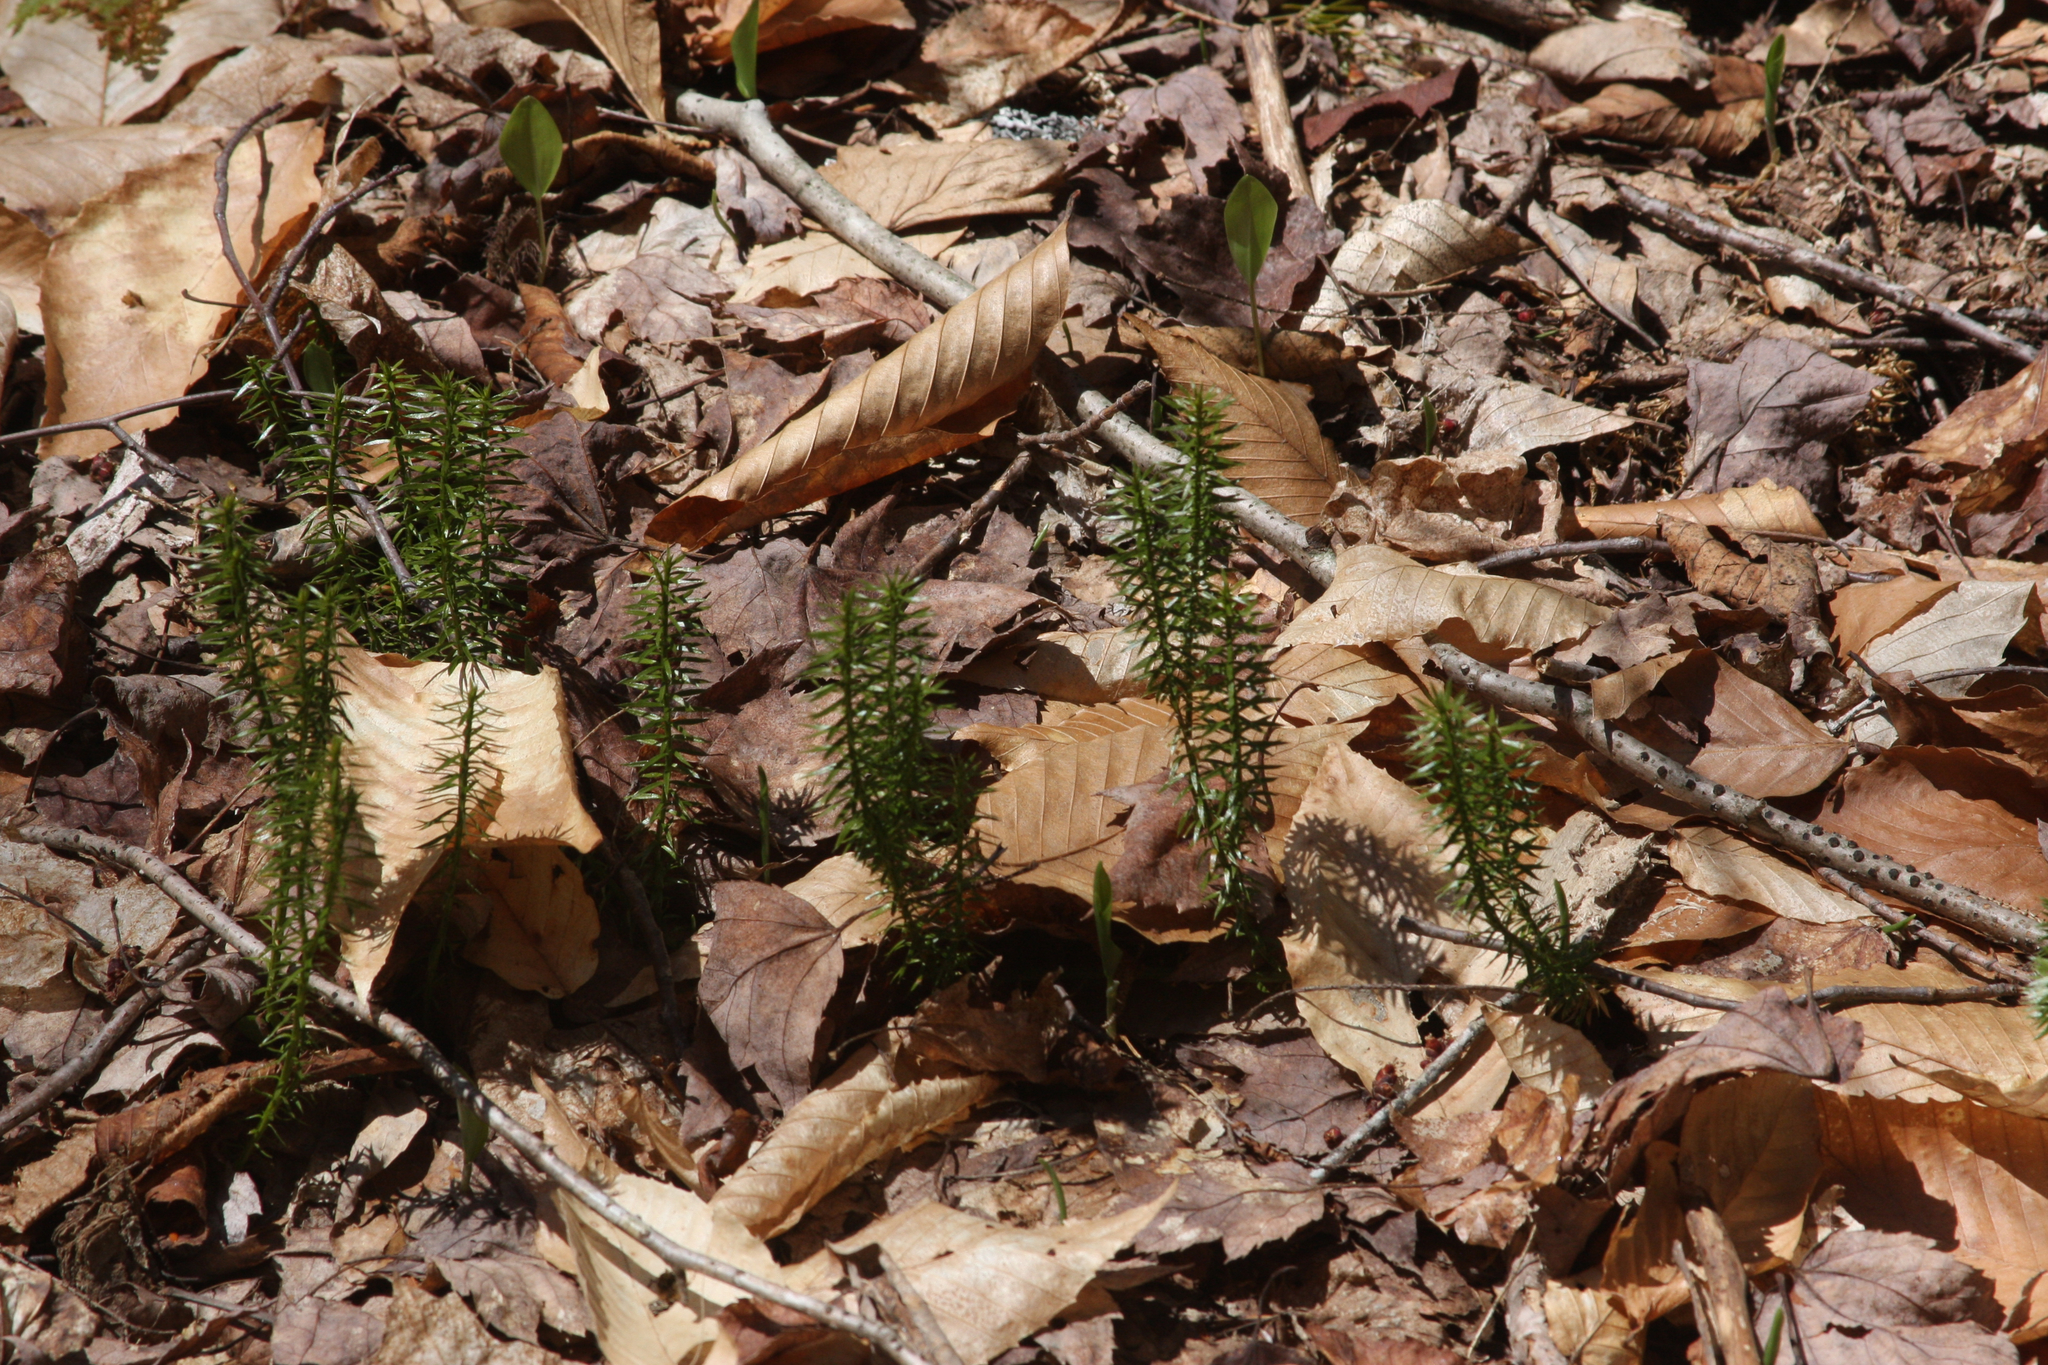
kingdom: Plantae
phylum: Tracheophyta
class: Lycopodiopsida
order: Lycopodiales
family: Lycopodiaceae
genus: Spinulum
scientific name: Spinulum annotinum
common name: Interrupted club-moss
